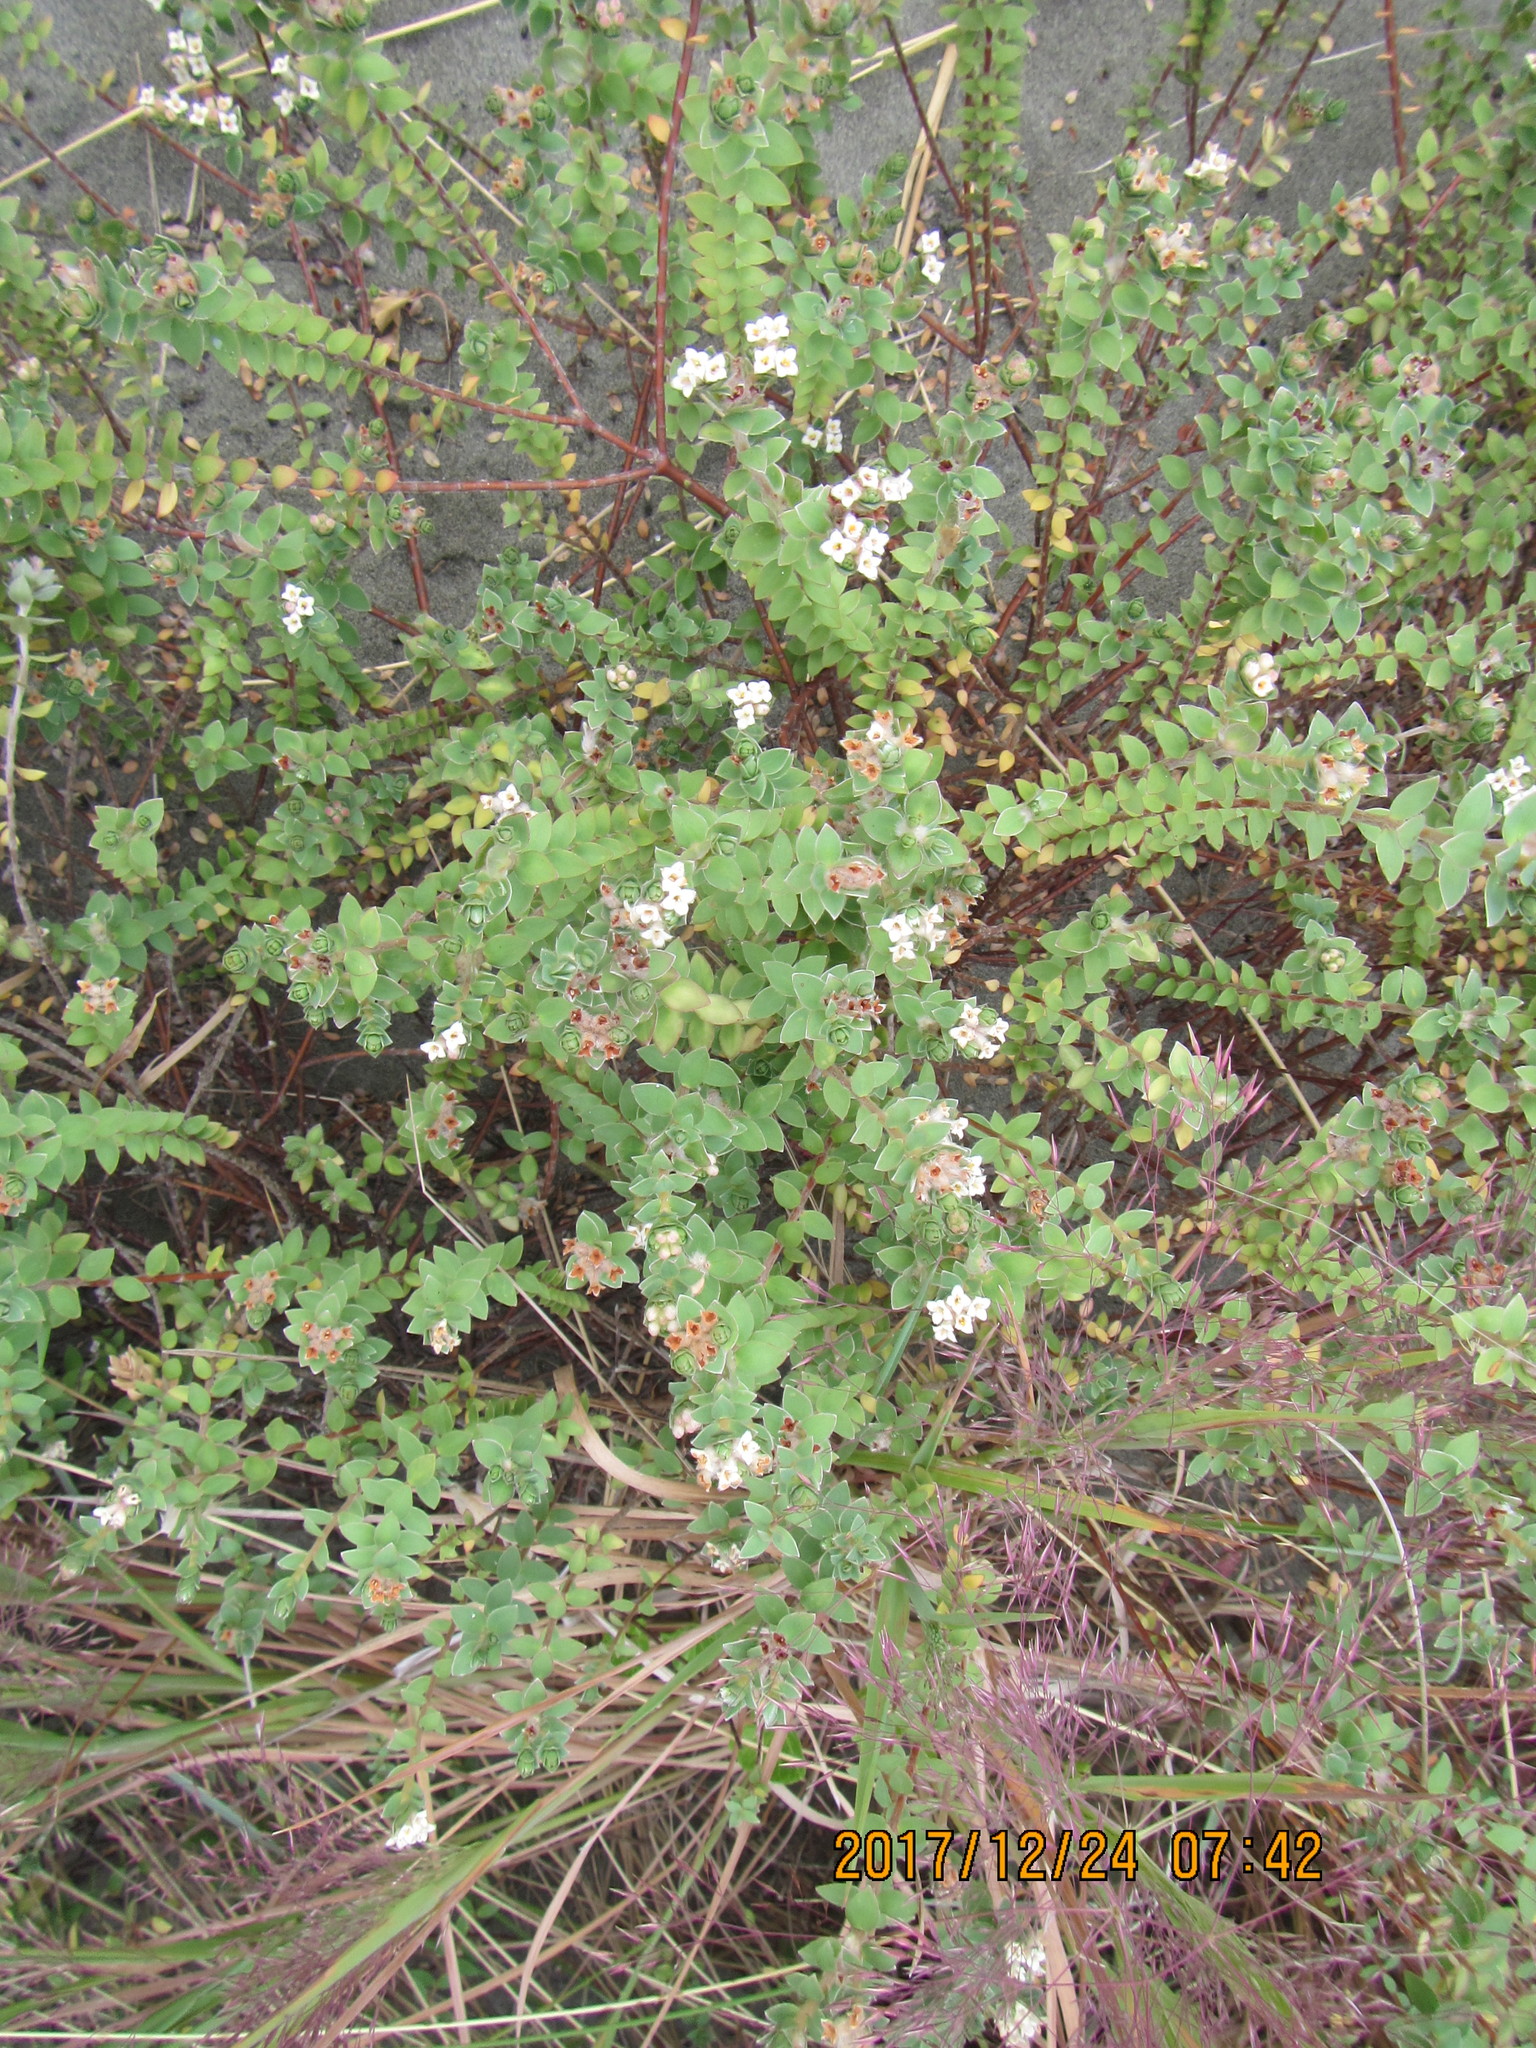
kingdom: Plantae
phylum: Tracheophyta
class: Magnoliopsida
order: Malvales
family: Thymelaeaceae
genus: Pimelea
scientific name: Pimelea villosa
